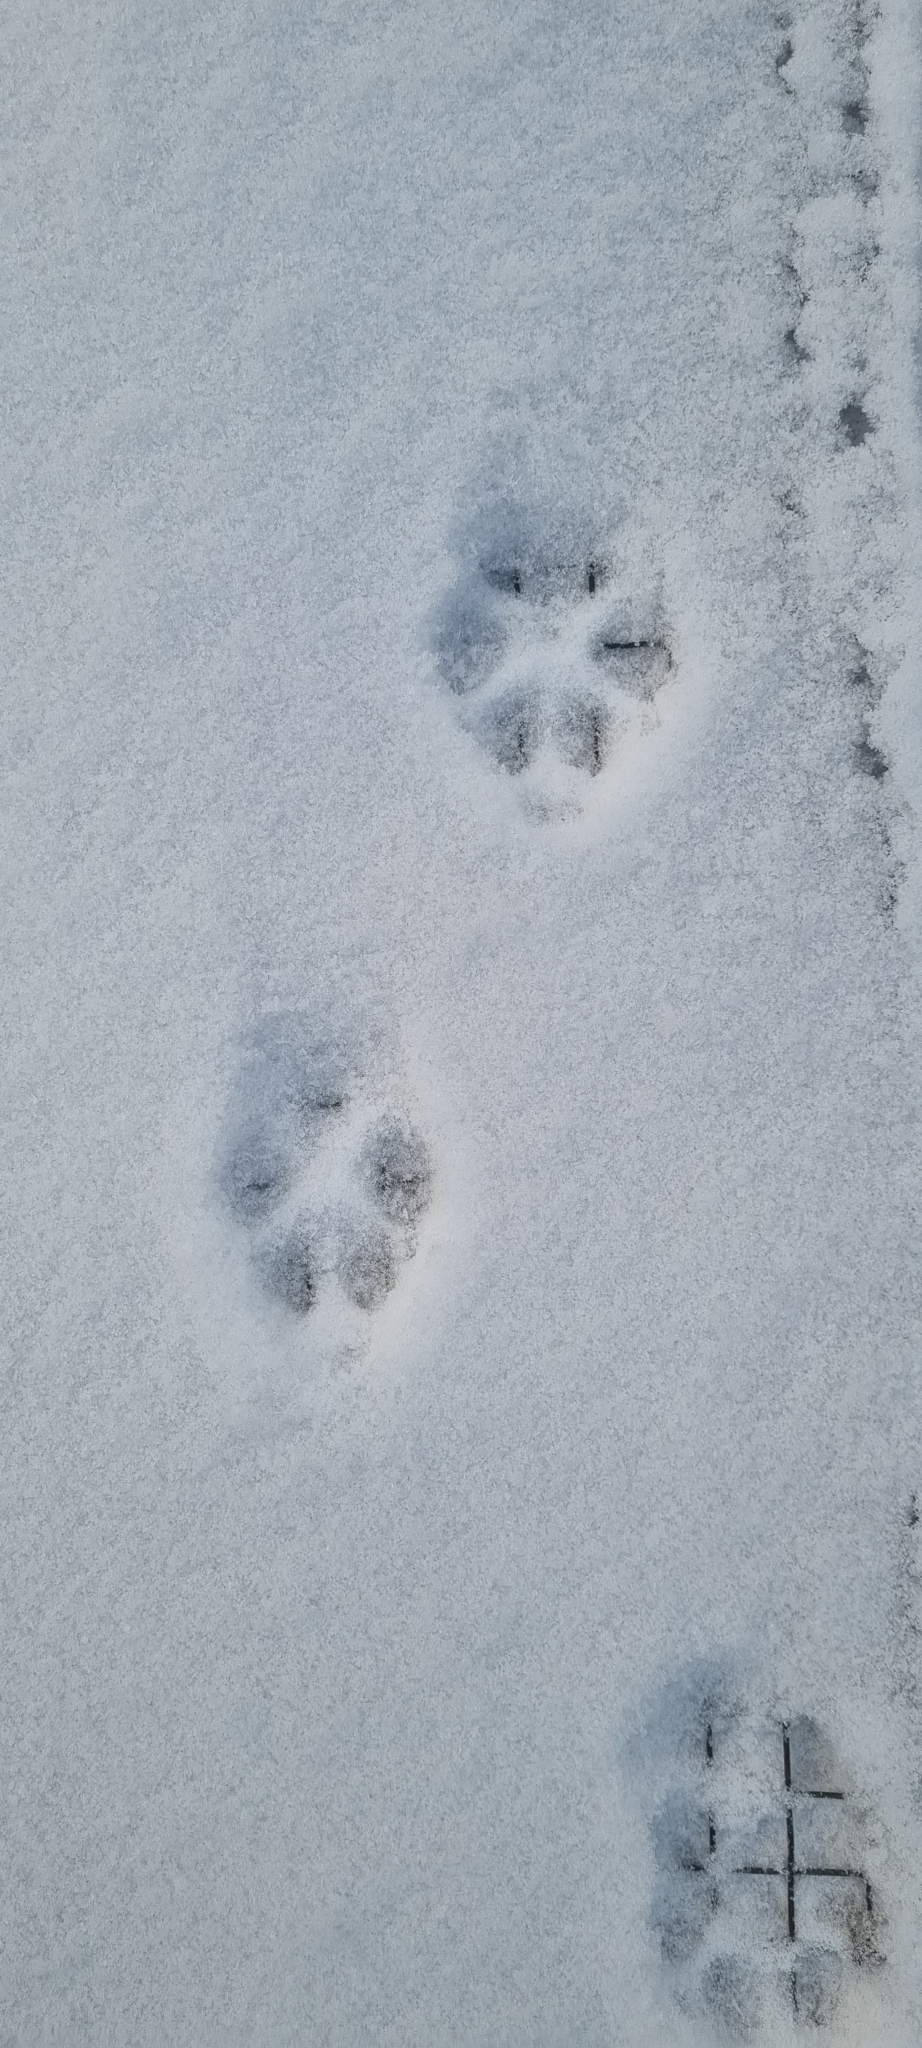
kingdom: Animalia
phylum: Chordata
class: Mammalia
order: Carnivora
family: Canidae
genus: Vulpes
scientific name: Vulpes vulpes
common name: Red fox
